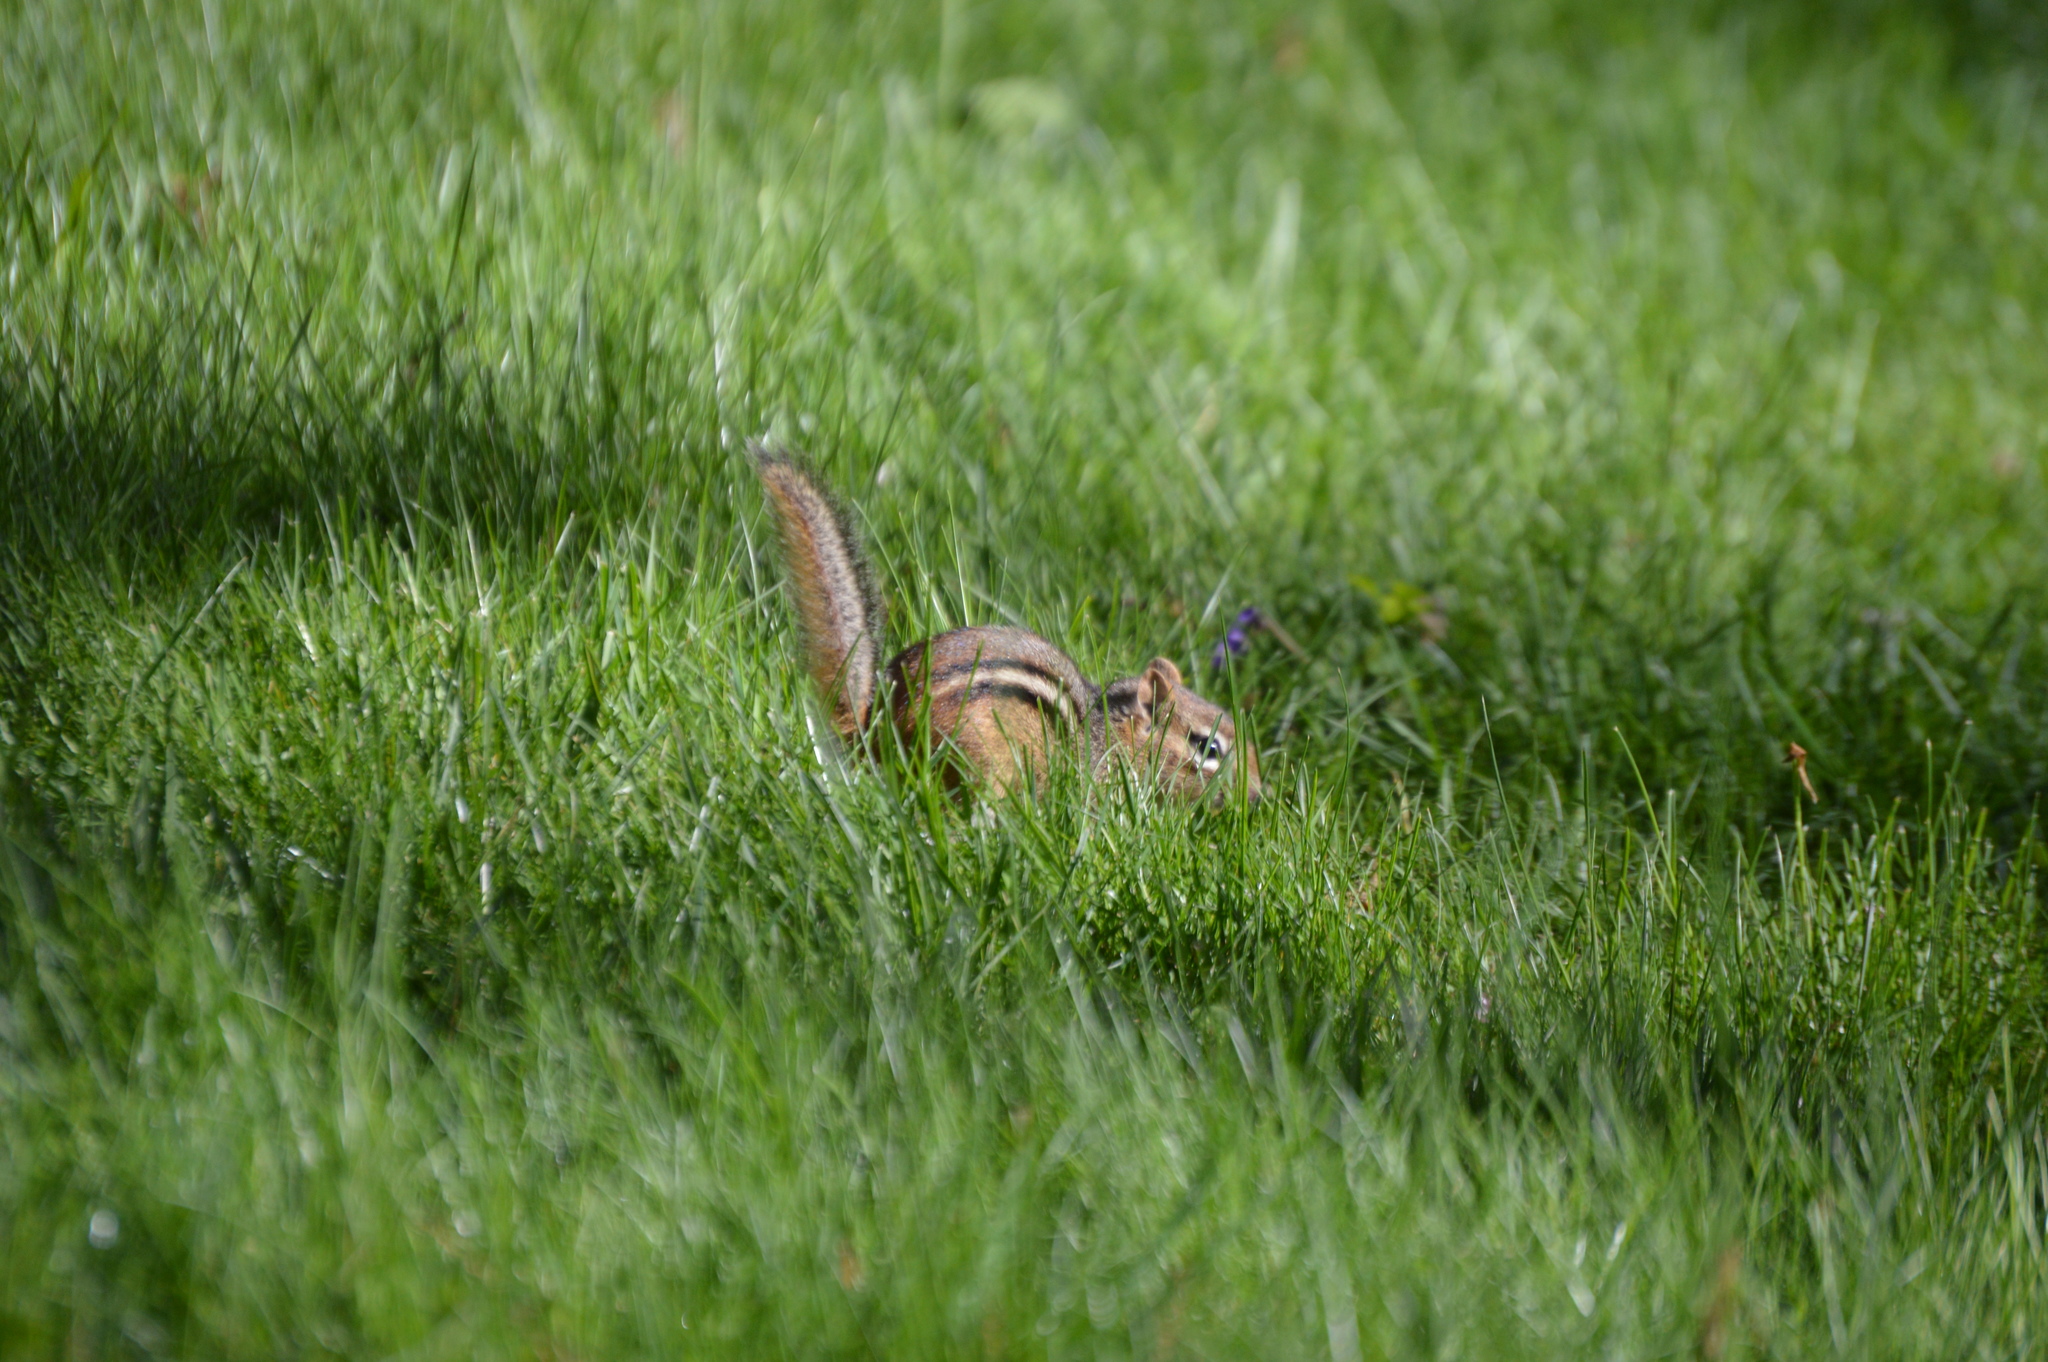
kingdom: Animalia
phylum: Chordata
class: Mammalia
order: Rodentia
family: Sciuridae
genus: Tamias
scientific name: Tamias striatus
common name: Eastern chipmunk
